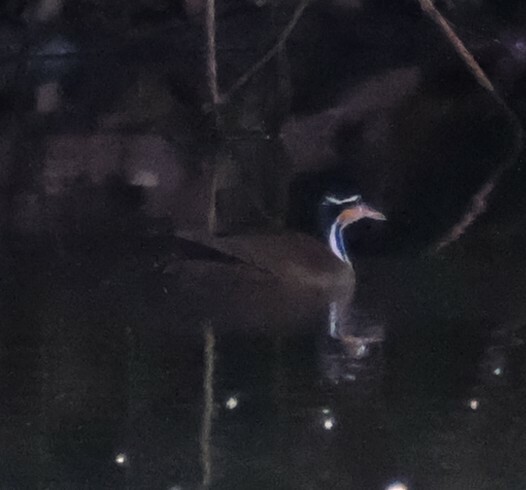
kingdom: Animalia
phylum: Chordata
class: Aves
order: Gruiformes
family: Heliornithidae
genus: Heliornis
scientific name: Heliornis fulica
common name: Sungrebe
